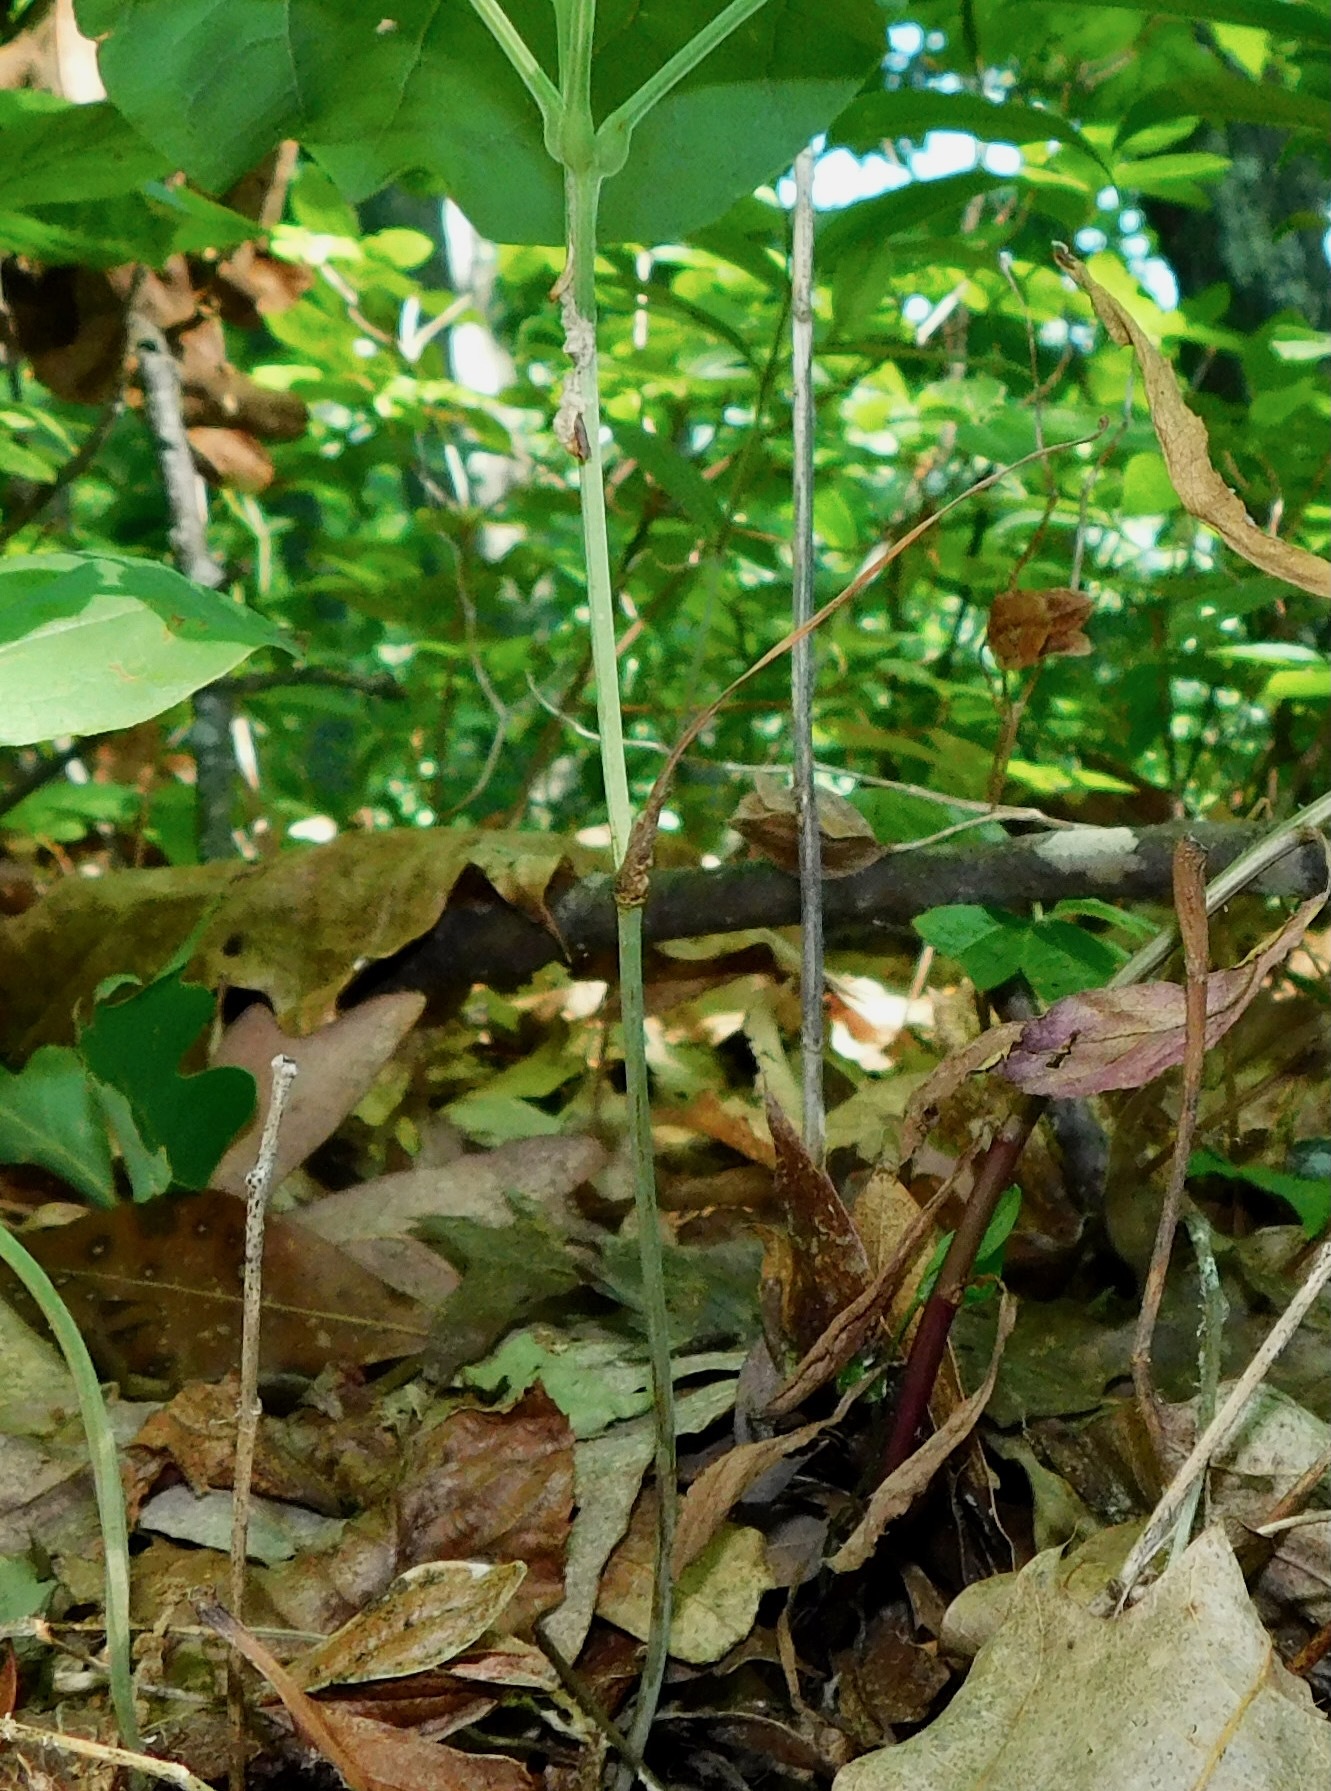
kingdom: Plantae
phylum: Tracheophyta
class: Liliopsida
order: Liliales
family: Smilacaceae
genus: Smilax
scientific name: Smilax biltmoreana
